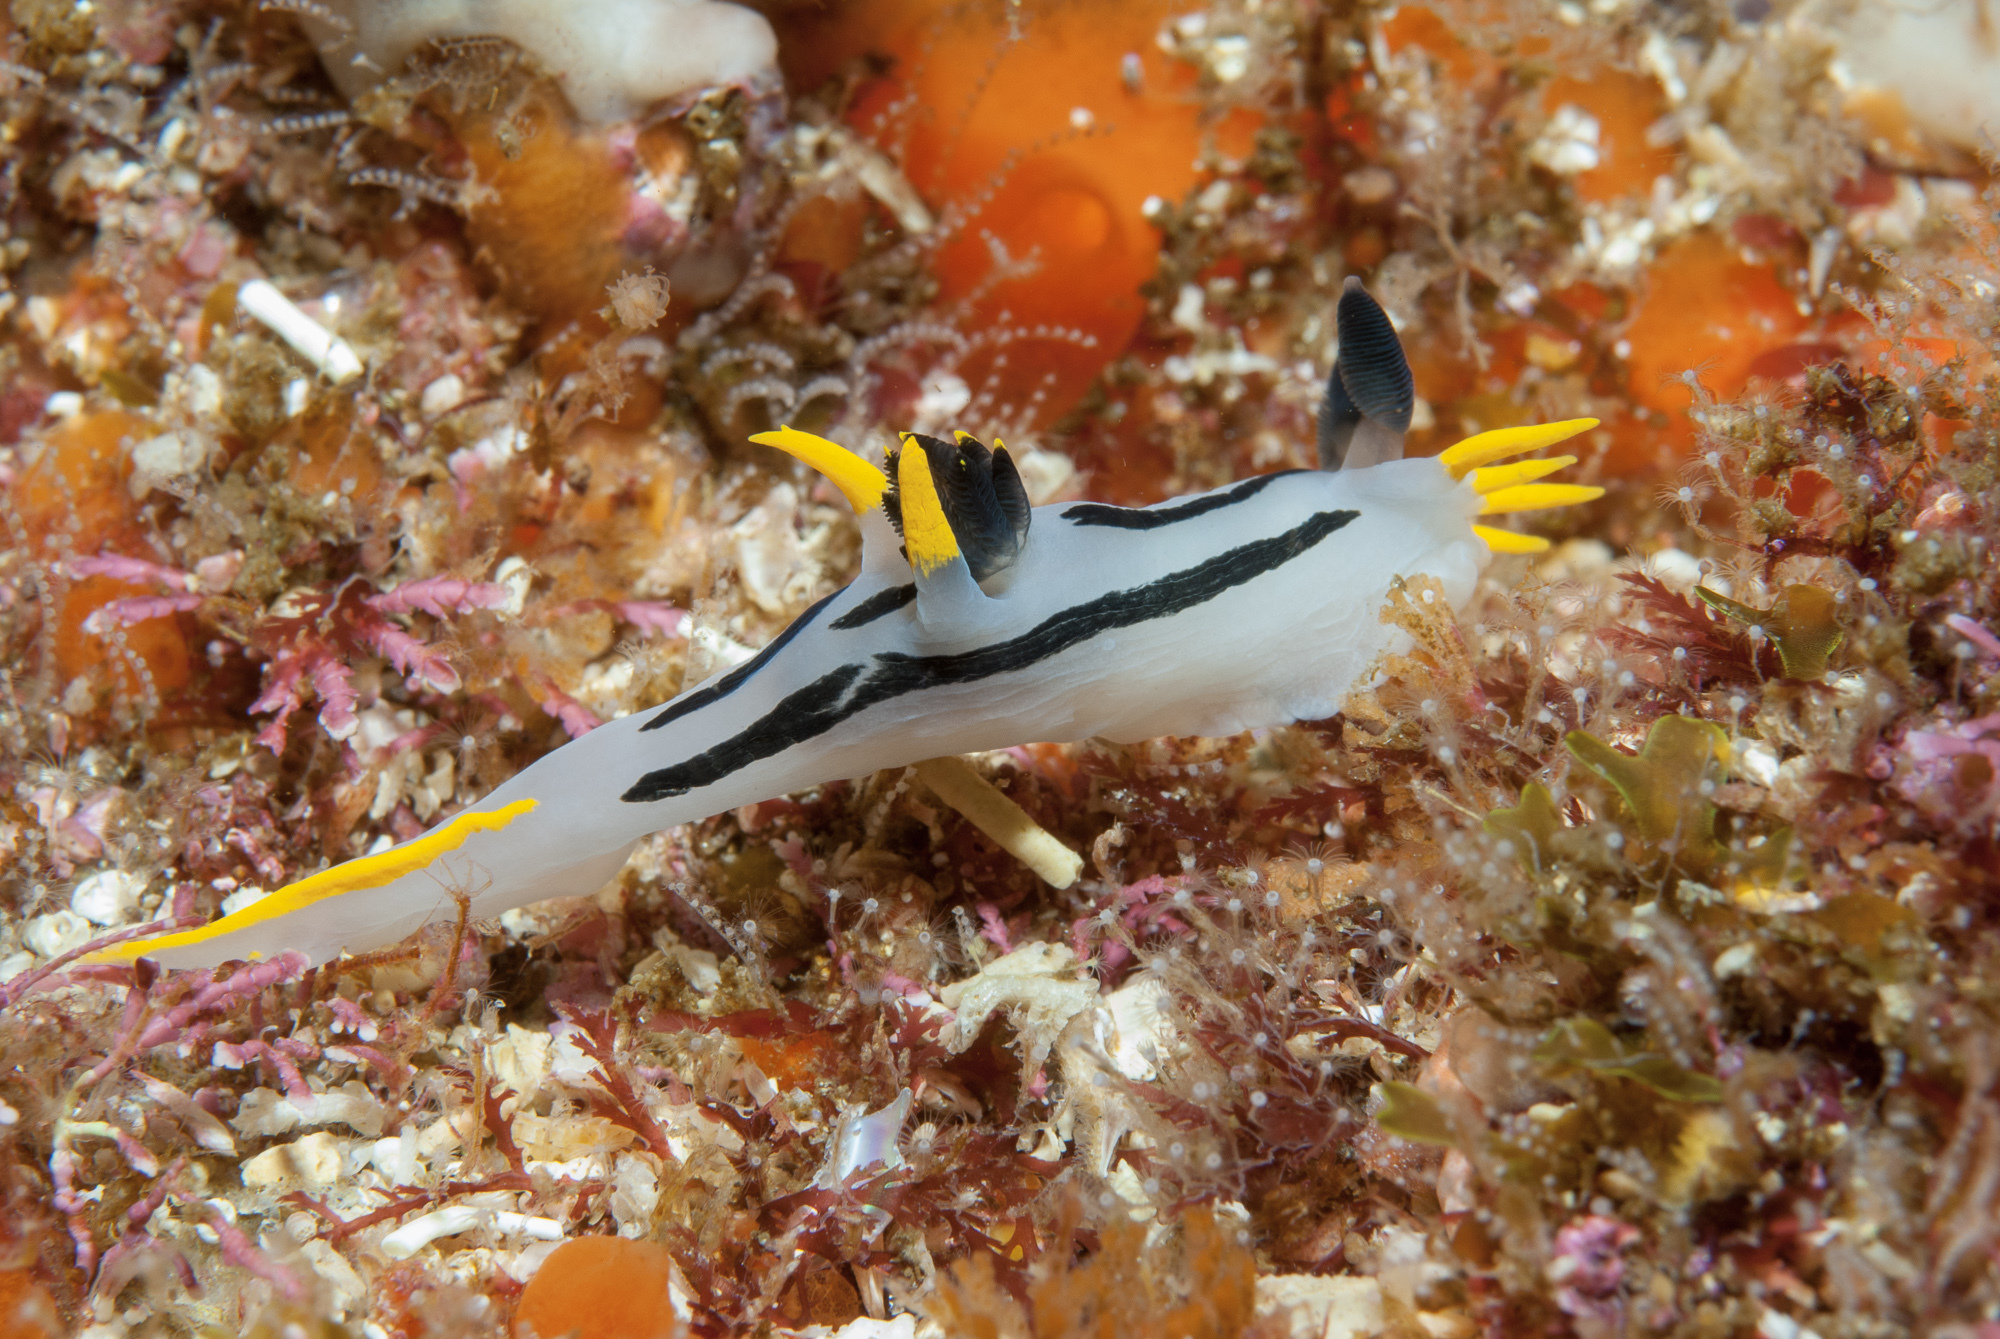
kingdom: Animalia
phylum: Mollusca
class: Gastropoda
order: Nudibranchia
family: Polyceridae
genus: Polycera
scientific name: Polycera capensis
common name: Crowned nudibranch
